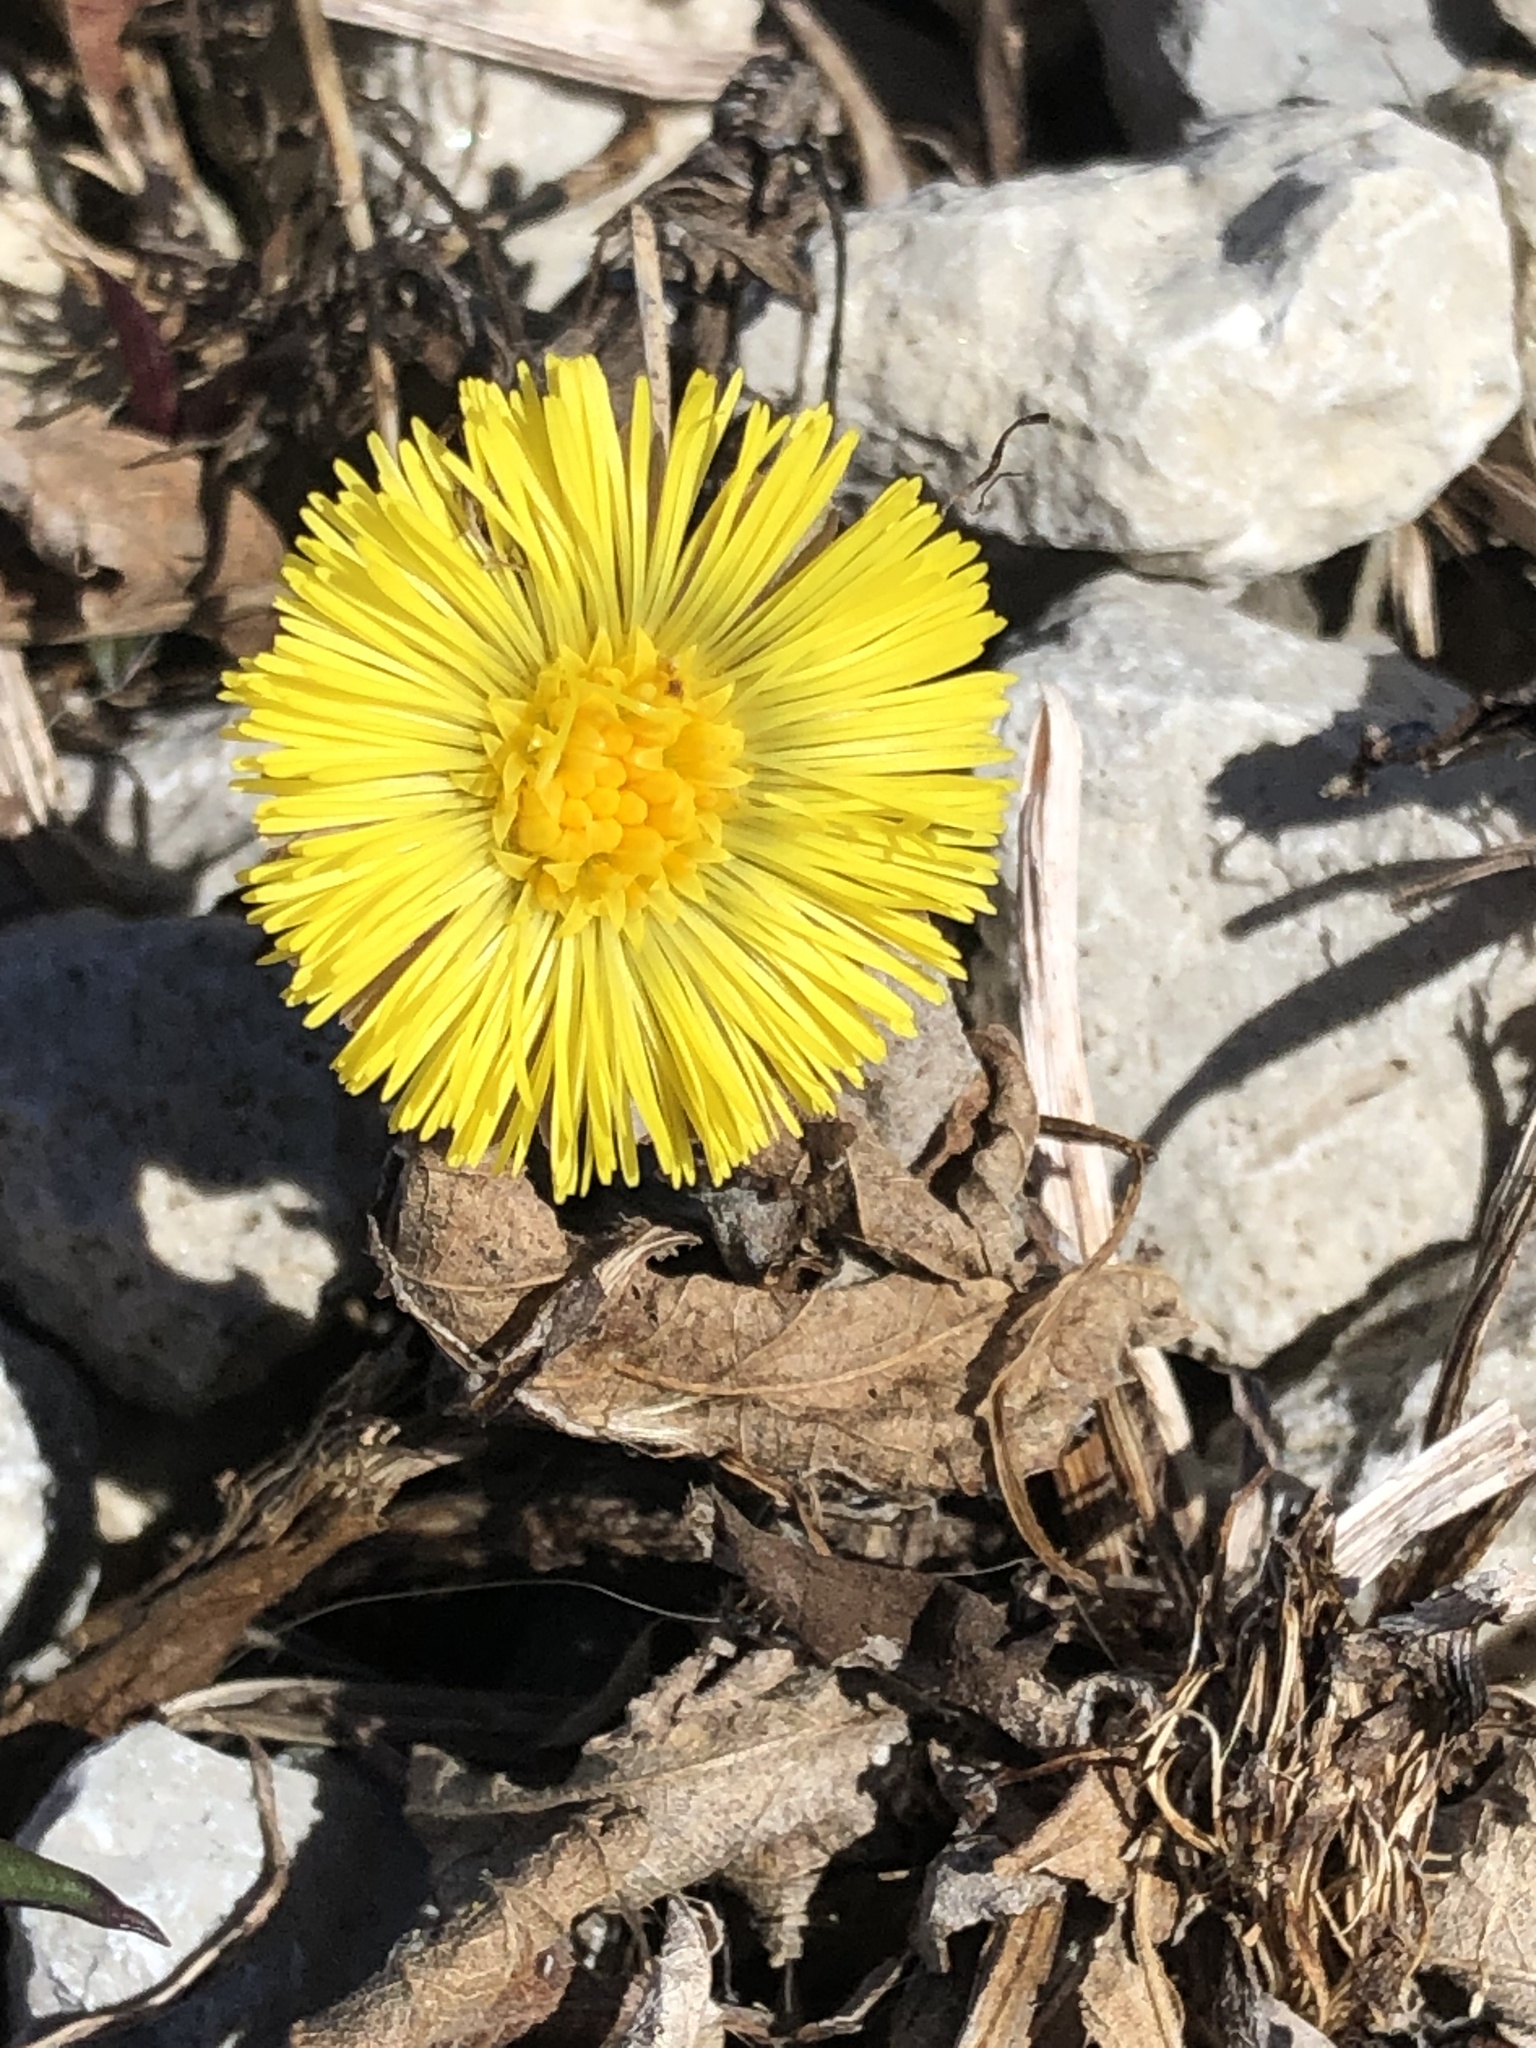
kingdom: Plantae
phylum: Tracheophyta
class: Magnoliopsida
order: Asterales
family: Asteraceae
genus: Tussilago
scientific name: Tussilago farfara
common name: Coltsfoot
